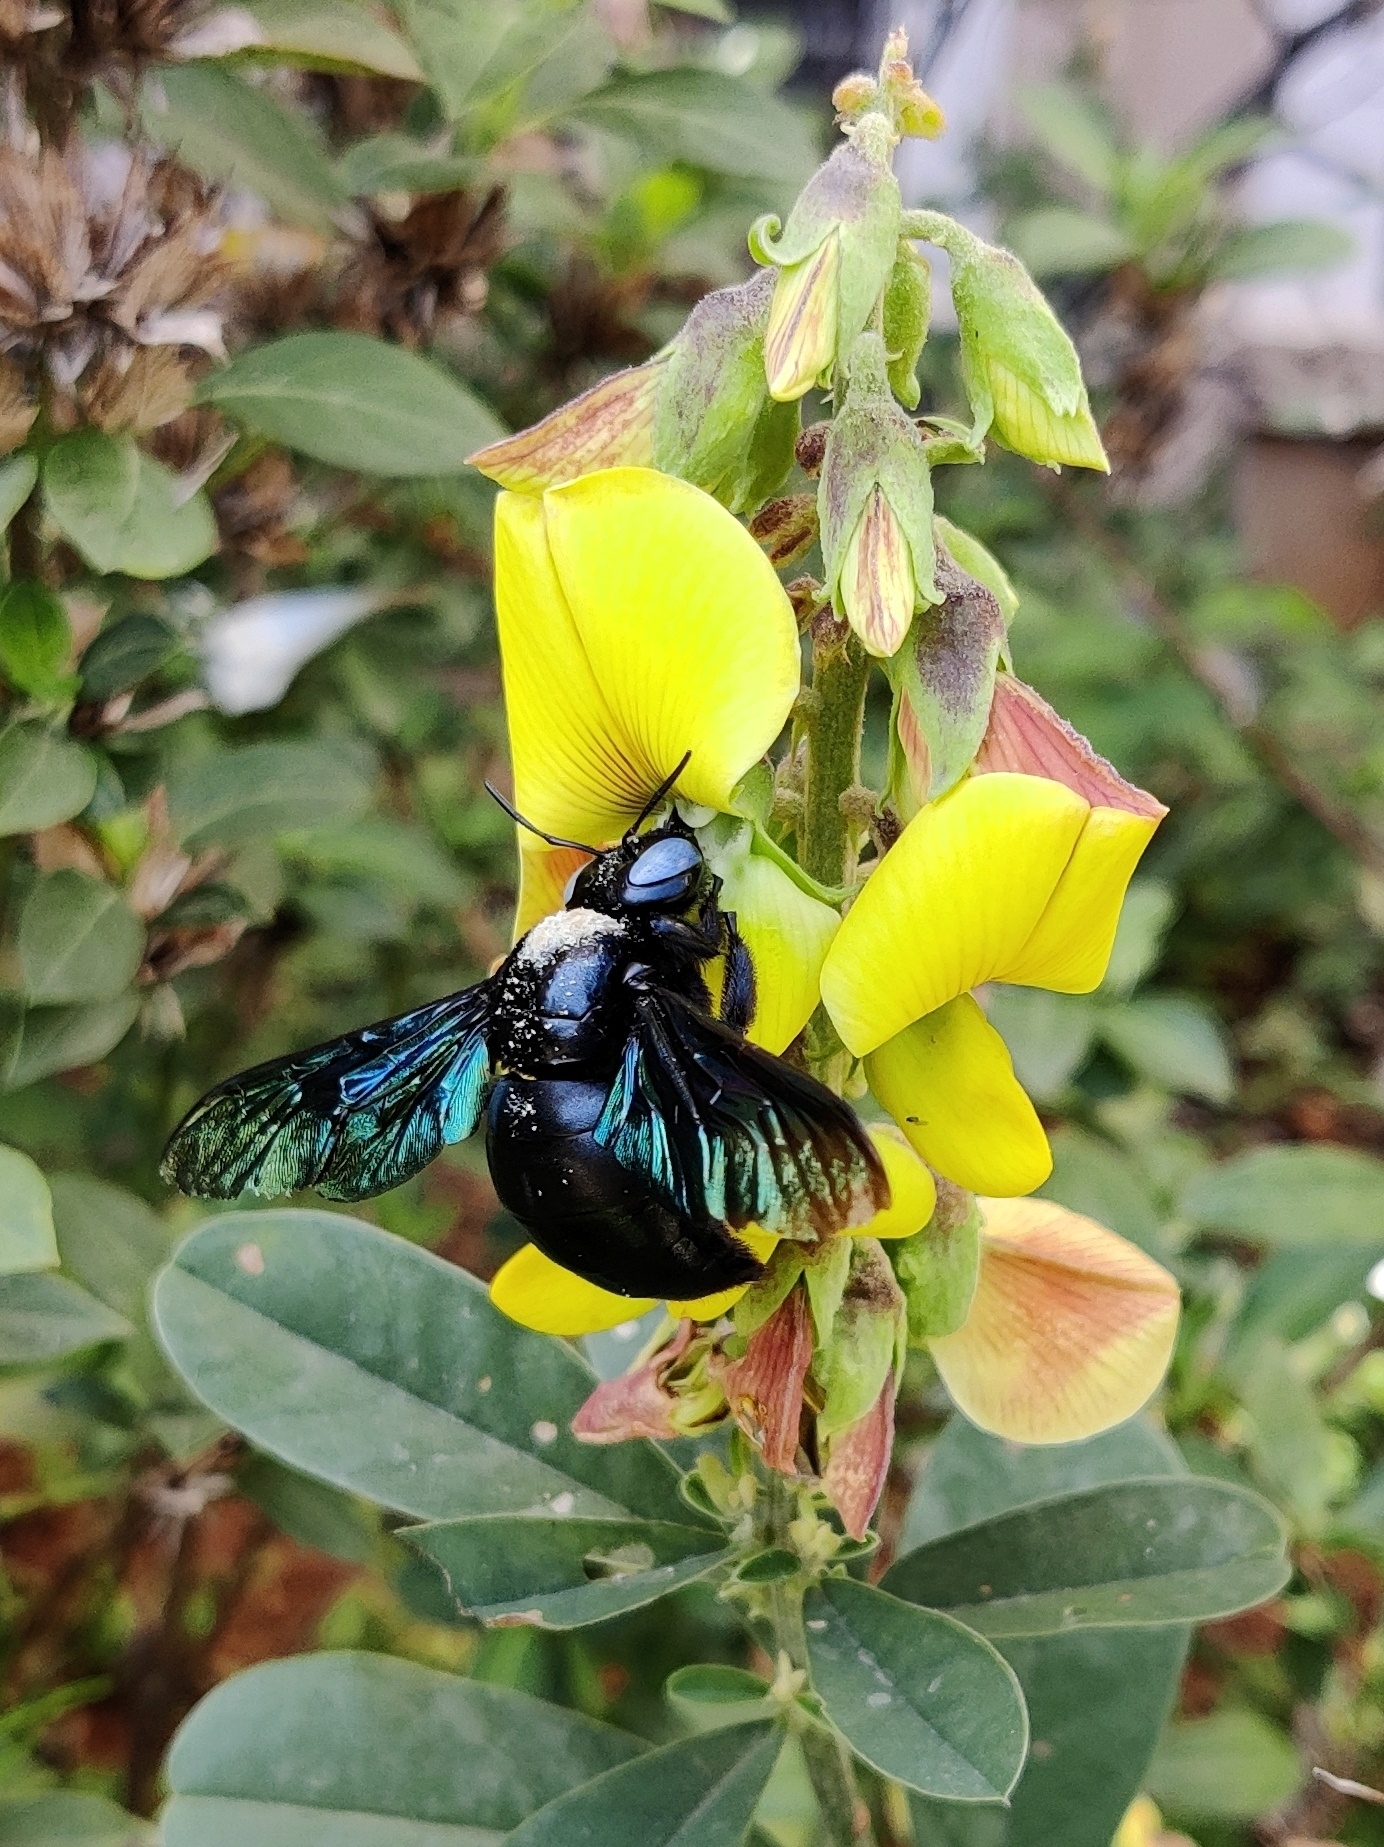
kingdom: Animalia
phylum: Arthropoda
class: Insecta
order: Hymenoptera
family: Apidae
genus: Xylocopa
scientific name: Xylocopa tenuiscapa
